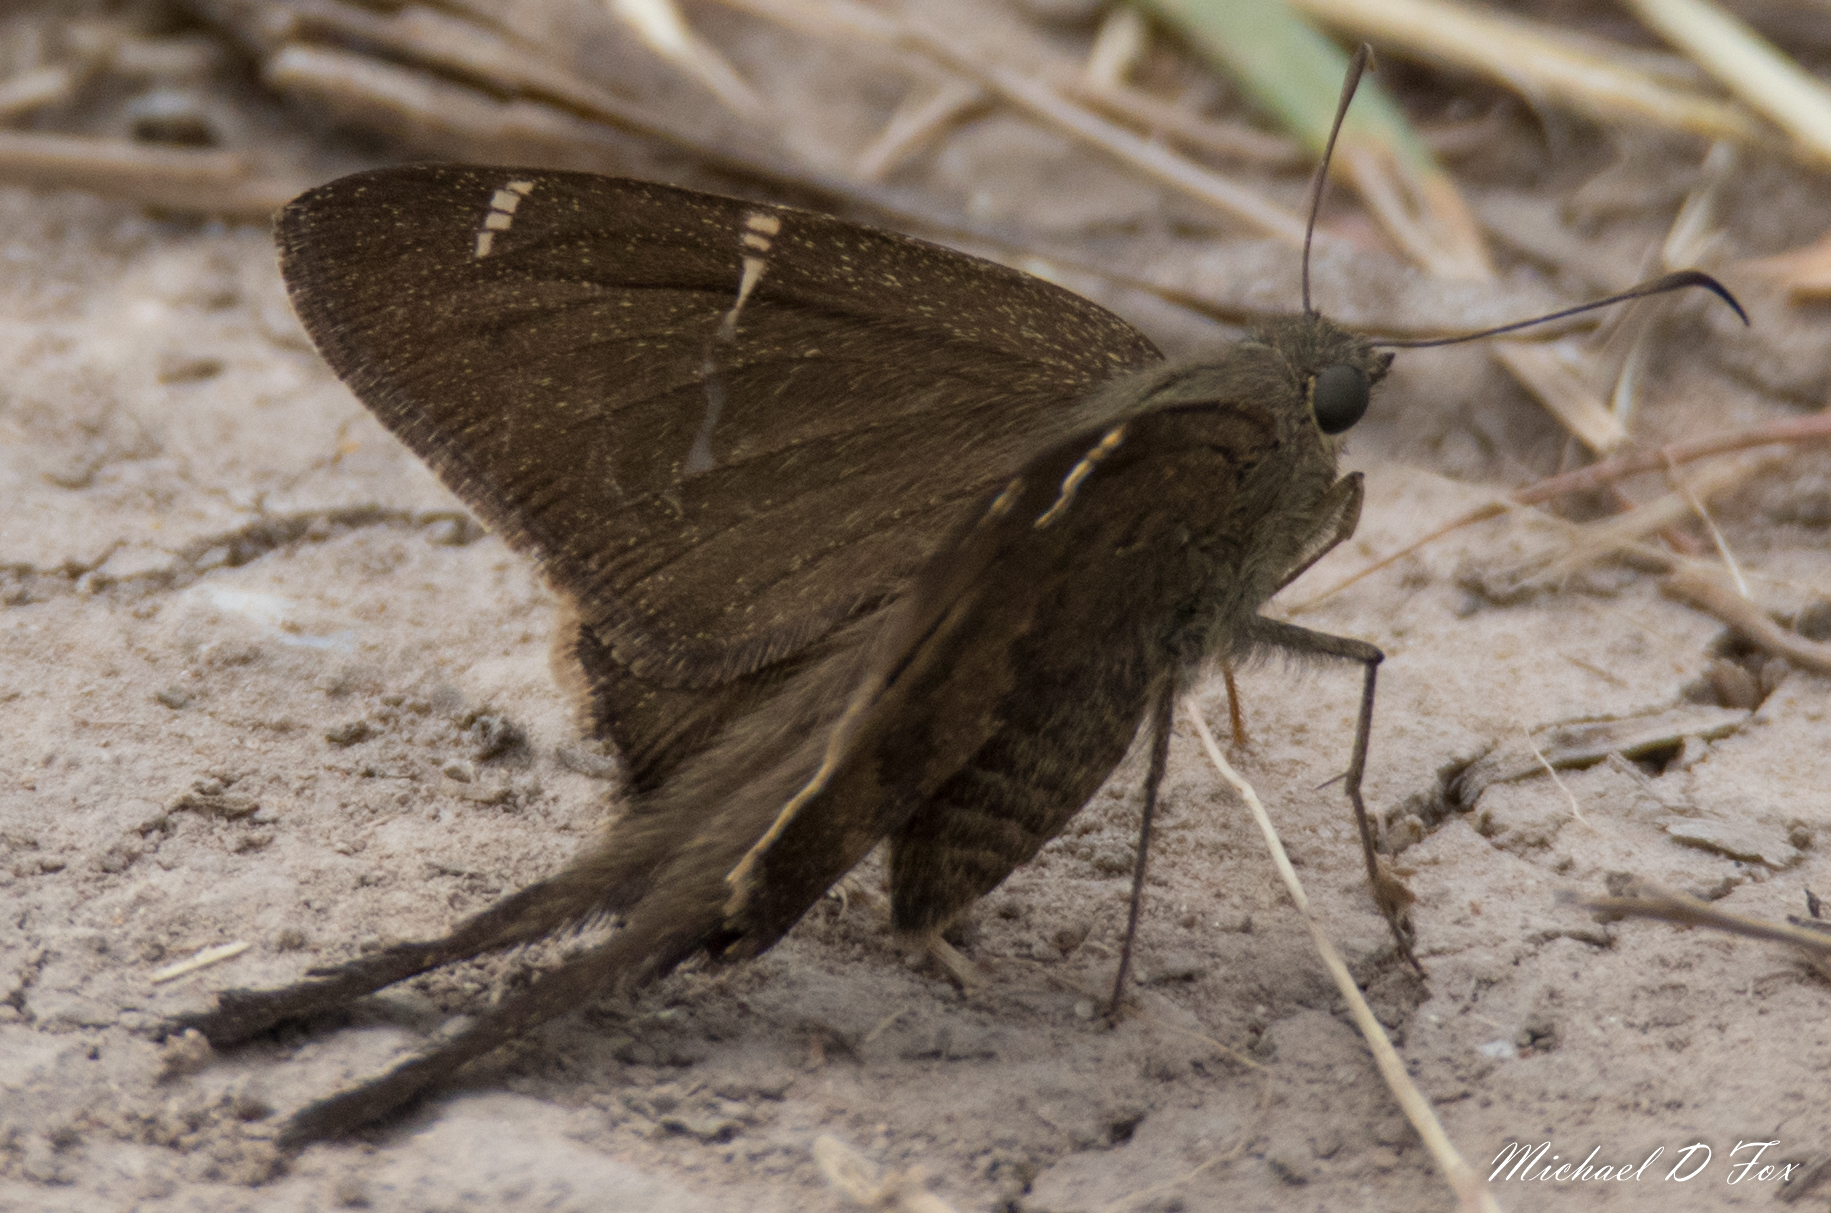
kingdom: Animalia
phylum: Arthropoda
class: Insecta
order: Lepidoptera
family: Hesperiidae
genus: Urbanus
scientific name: Urbanus procne
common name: Brown longtail
